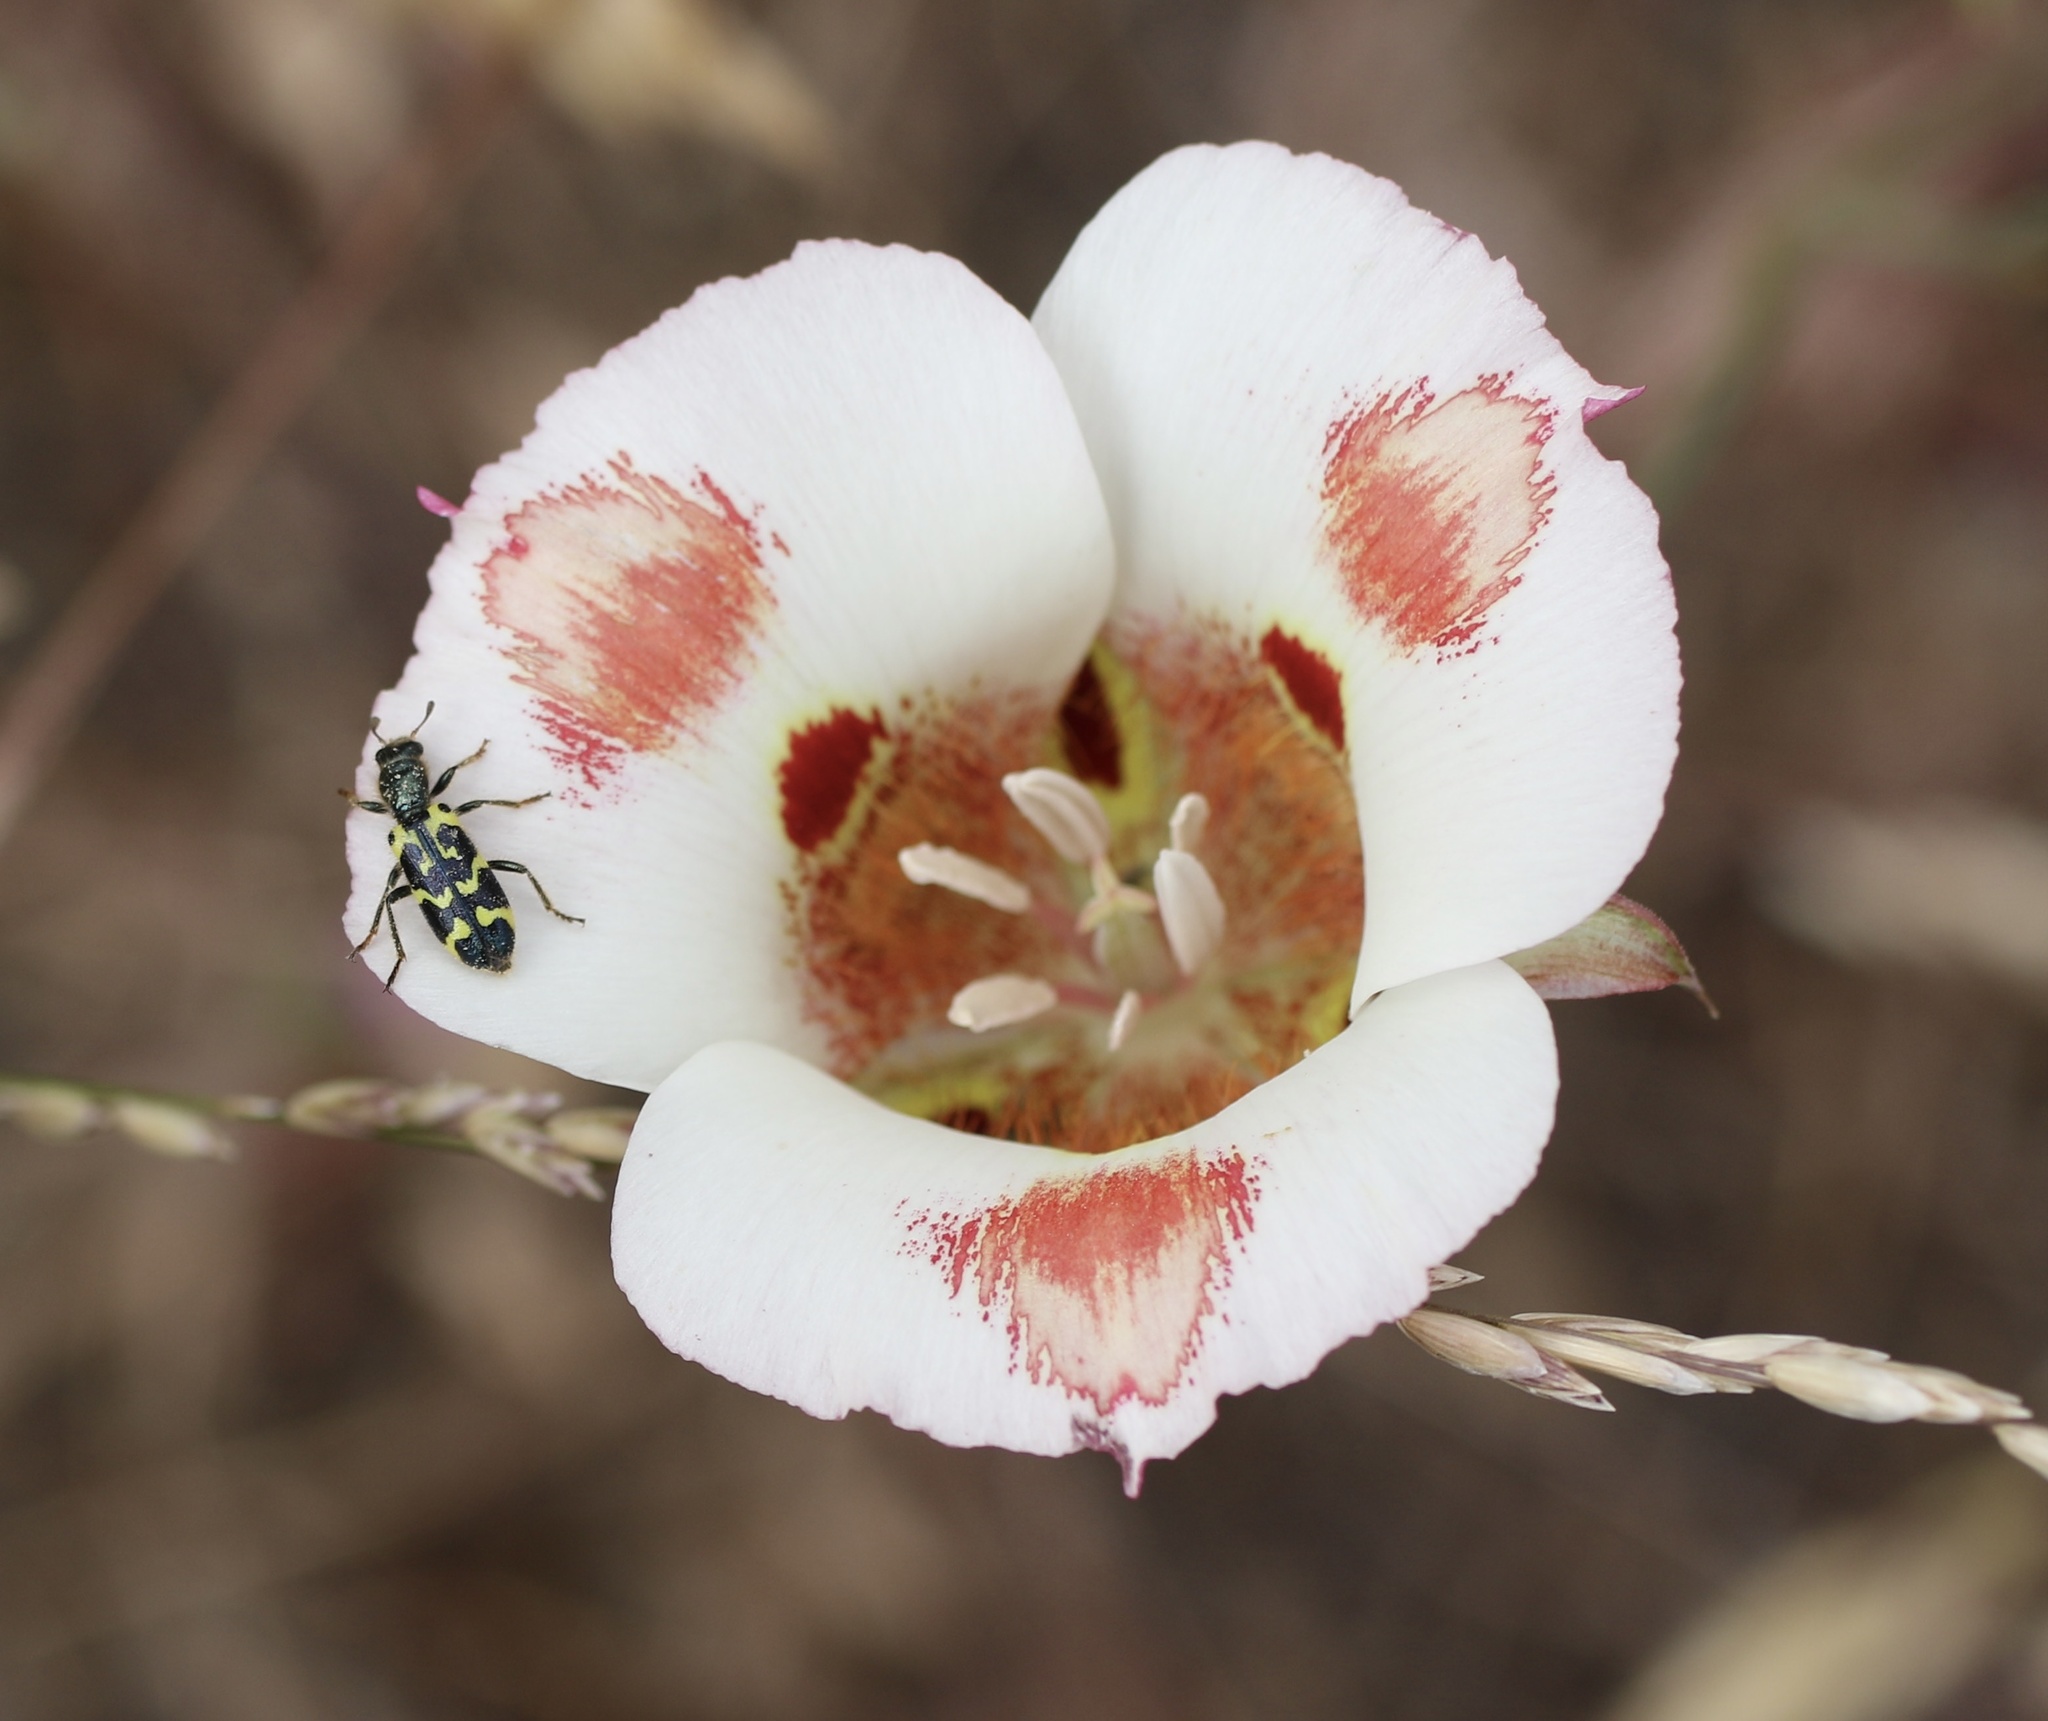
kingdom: Plantae
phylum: Tracheophyta
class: Liliopsida
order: Liliales
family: Liliaceae
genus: Calochortus
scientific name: Calochortus venustus
